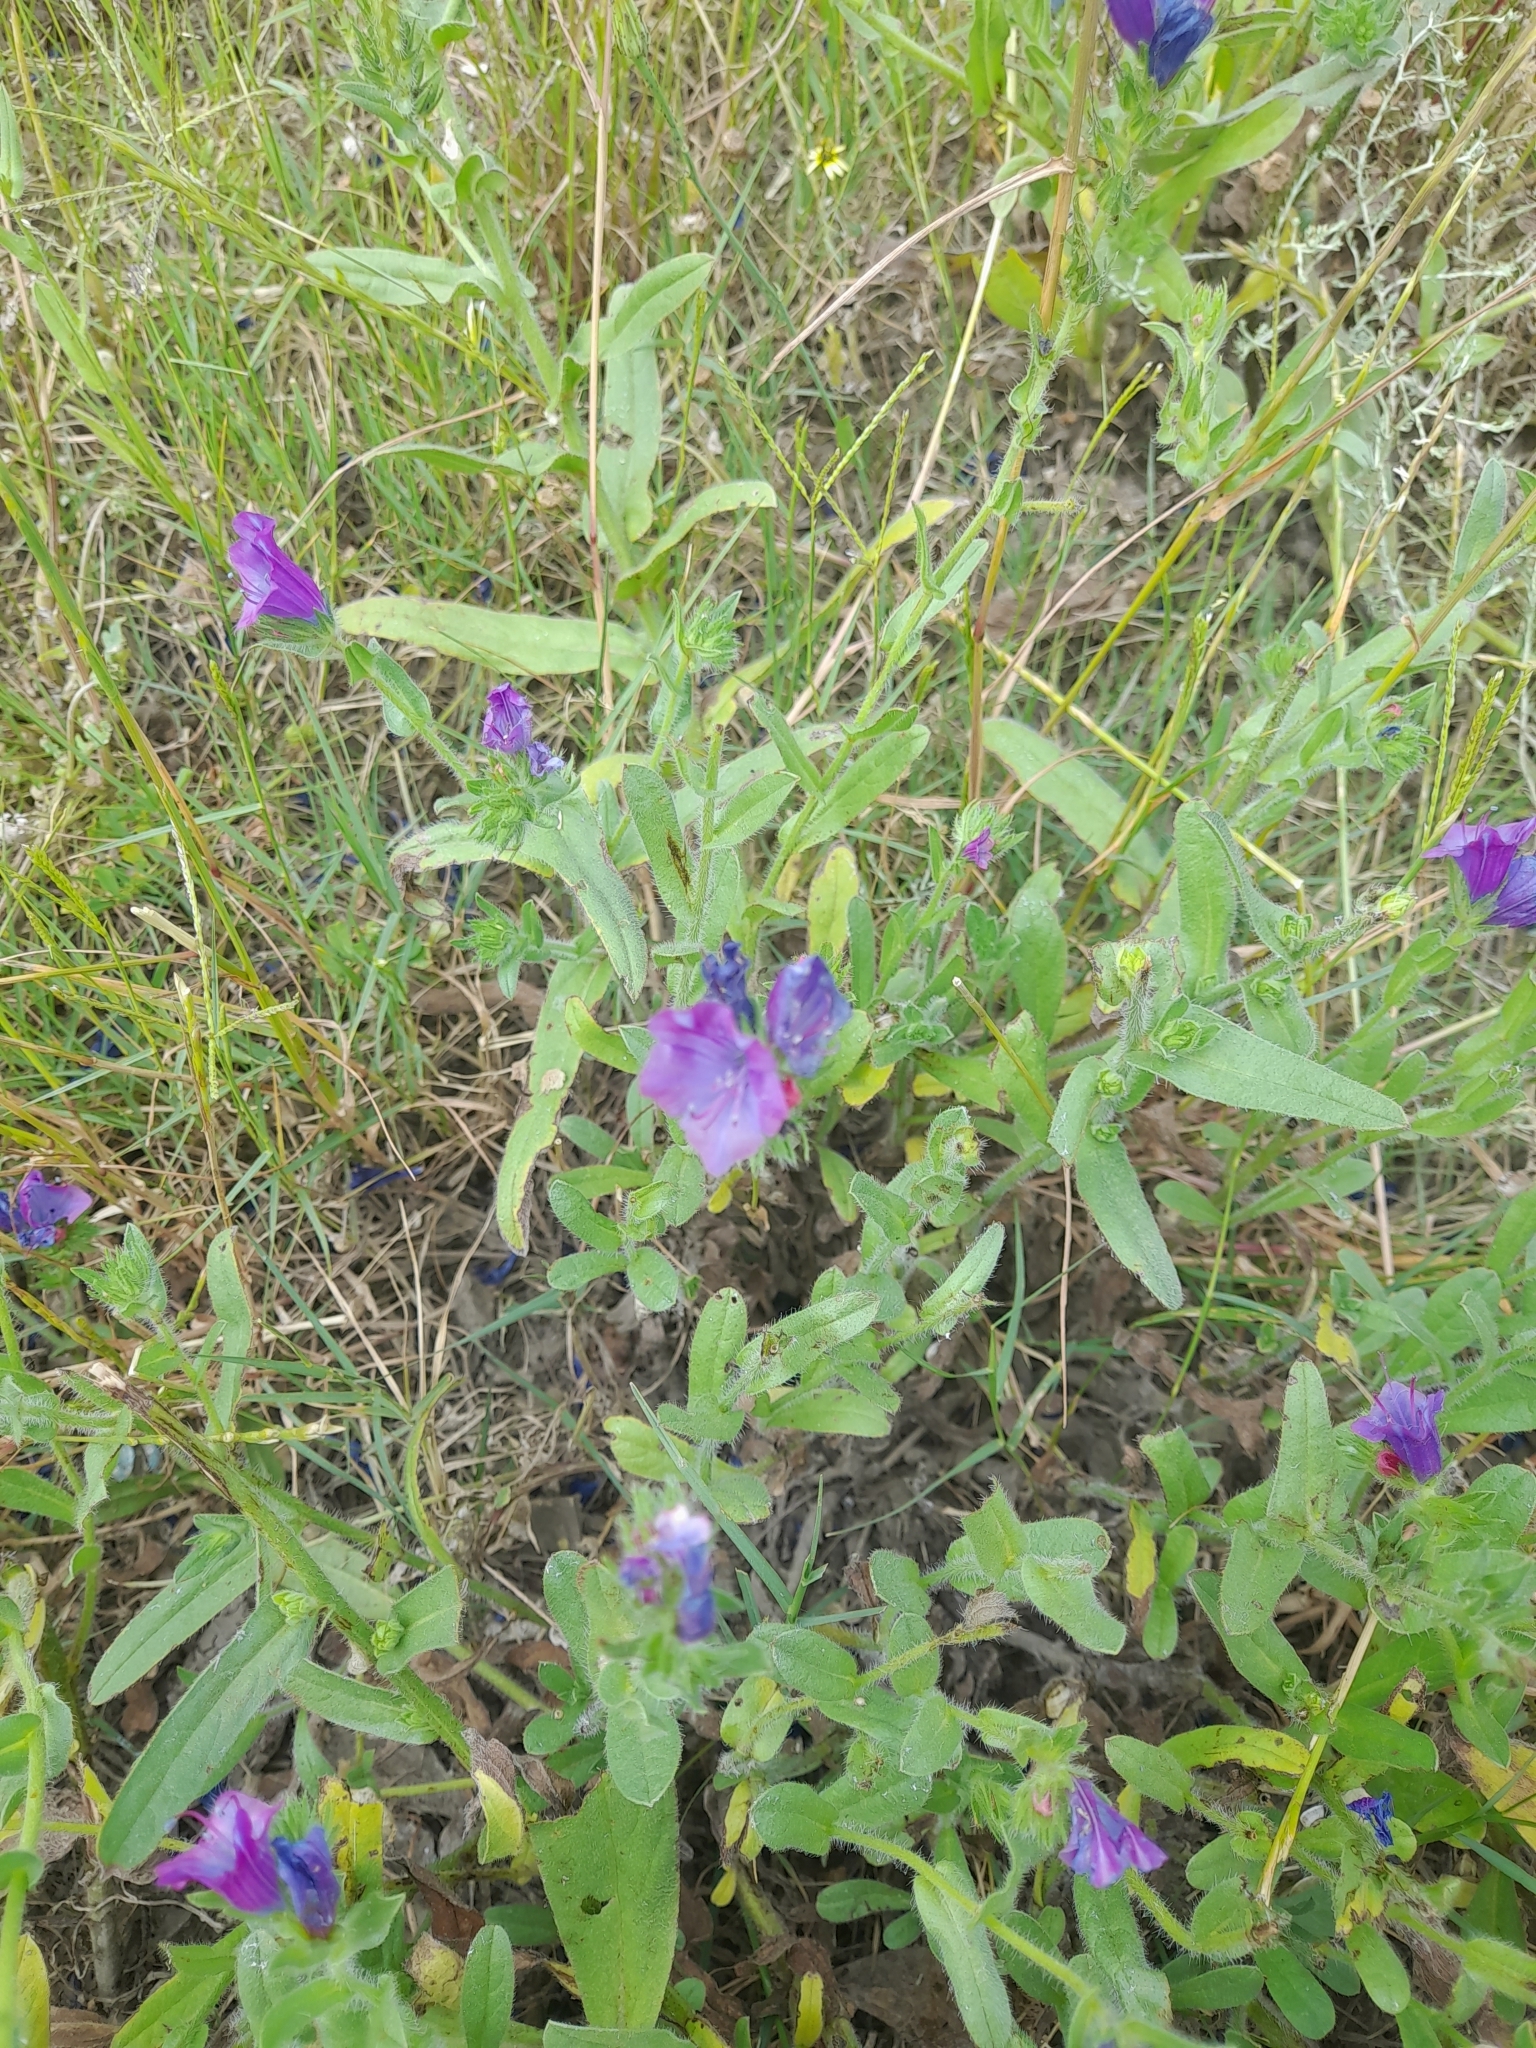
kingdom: Plantae
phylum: Tracheophyta
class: Magnoliopsida
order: Boraginales
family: Boraginaceae
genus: Echium
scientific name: Echium plantagineum
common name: Purple viper's-bugloss
